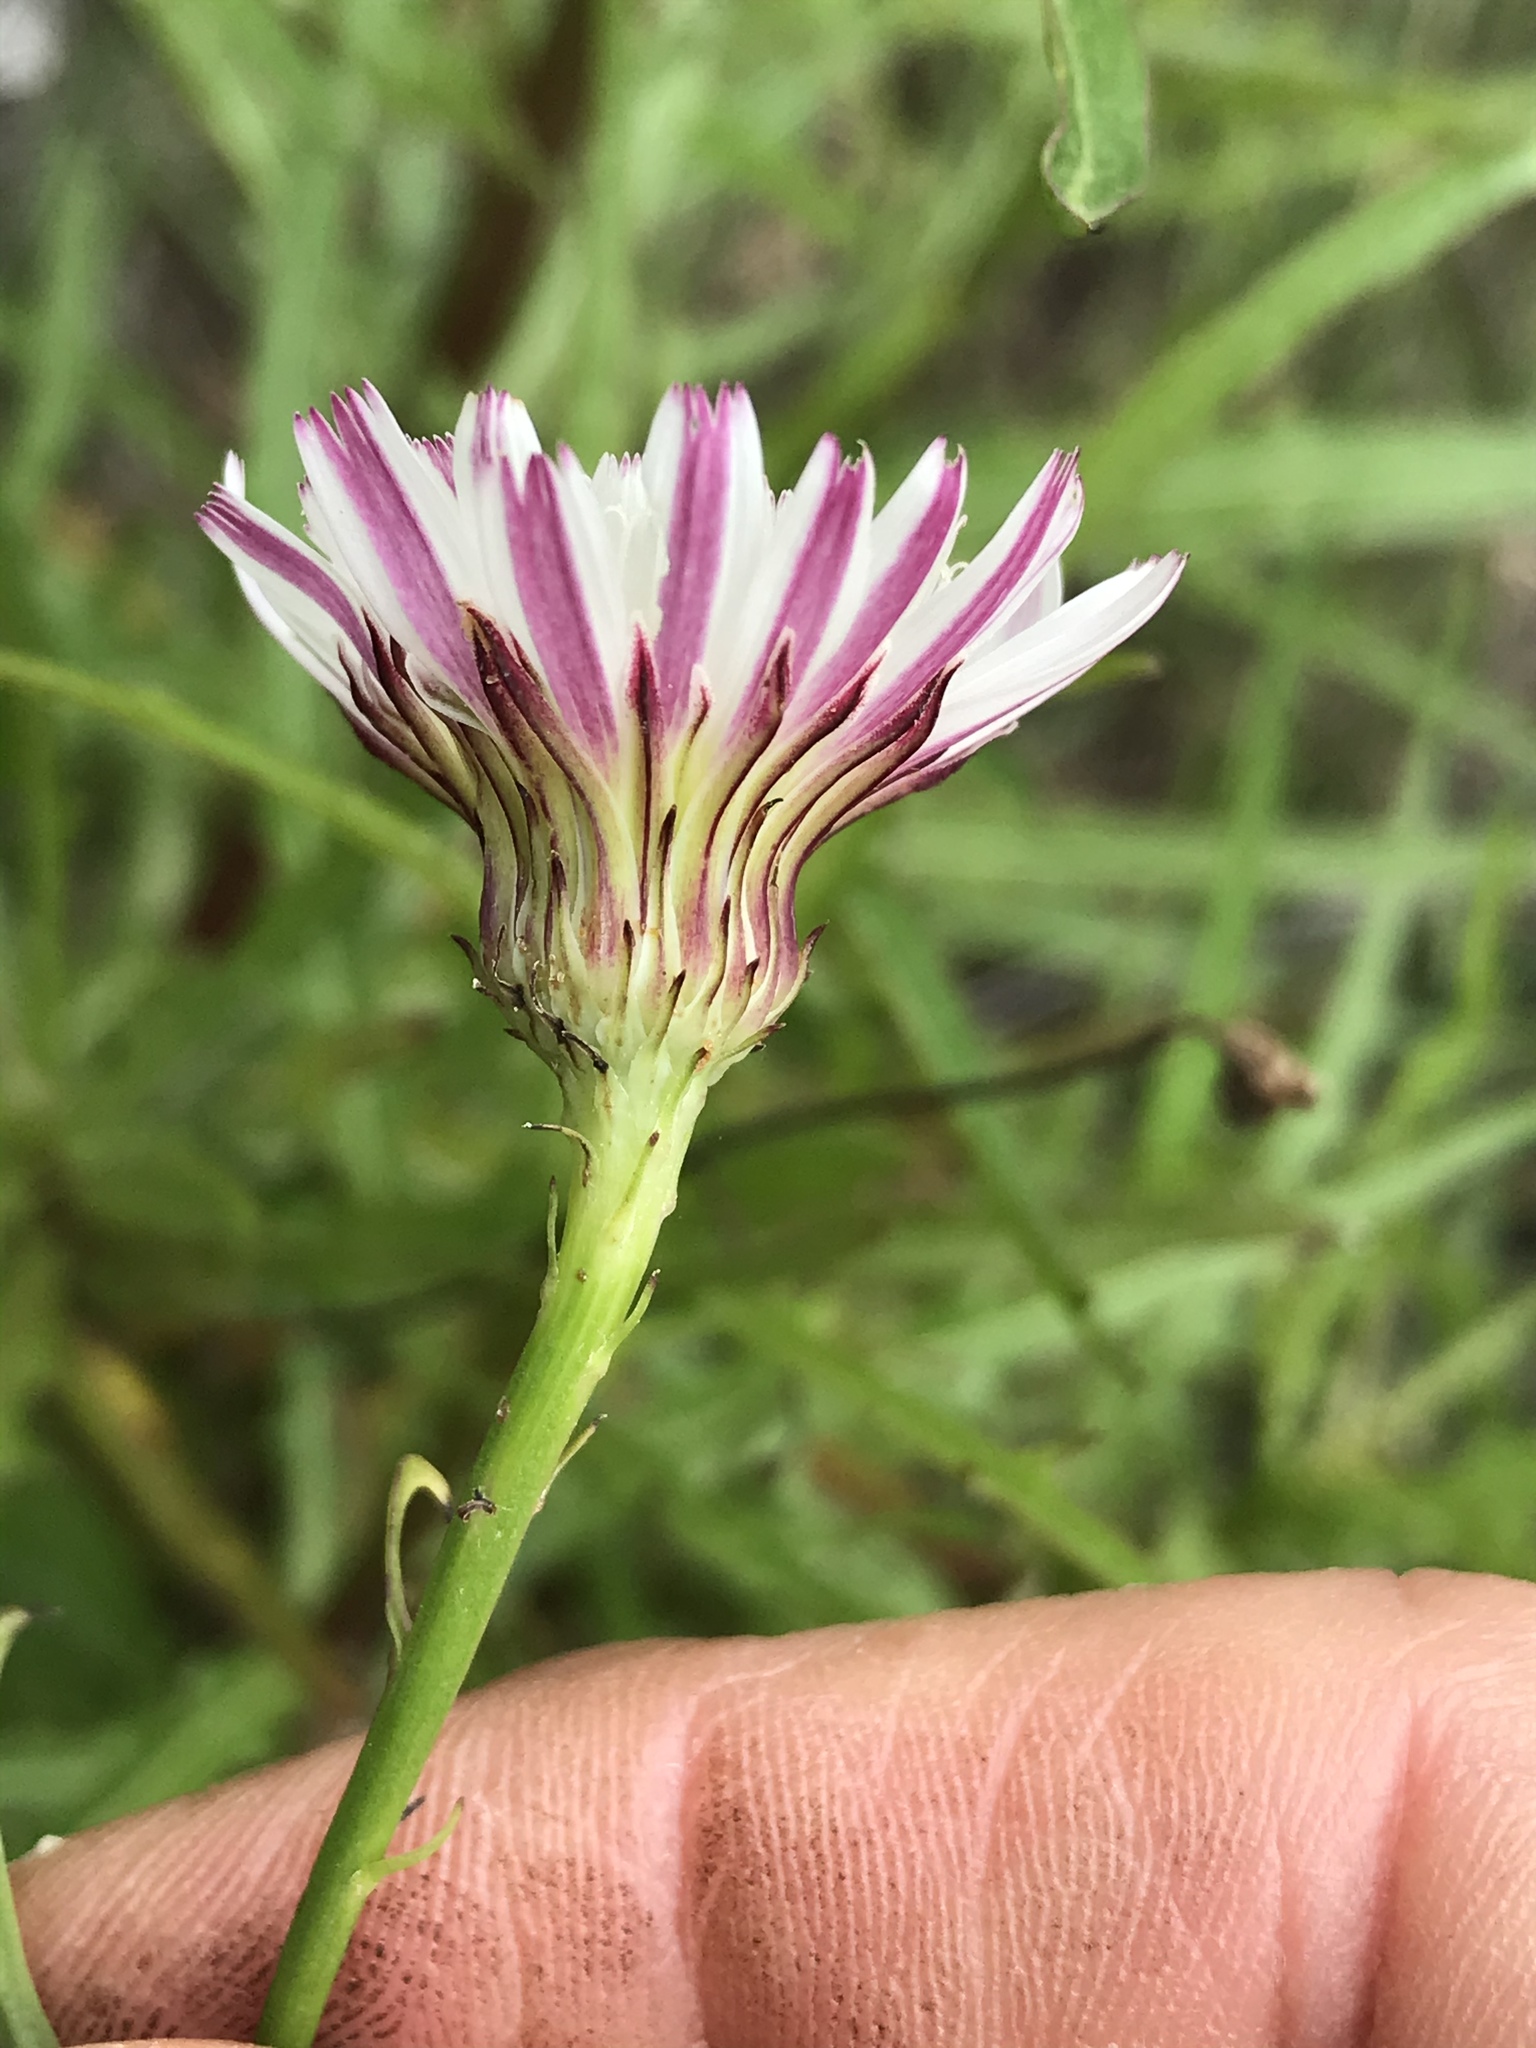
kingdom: Plantae
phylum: Tracheophyta
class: Magnoliopsida
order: Asterales
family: Asteraceae
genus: Malacothrix
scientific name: Malacothrix saxatilis
